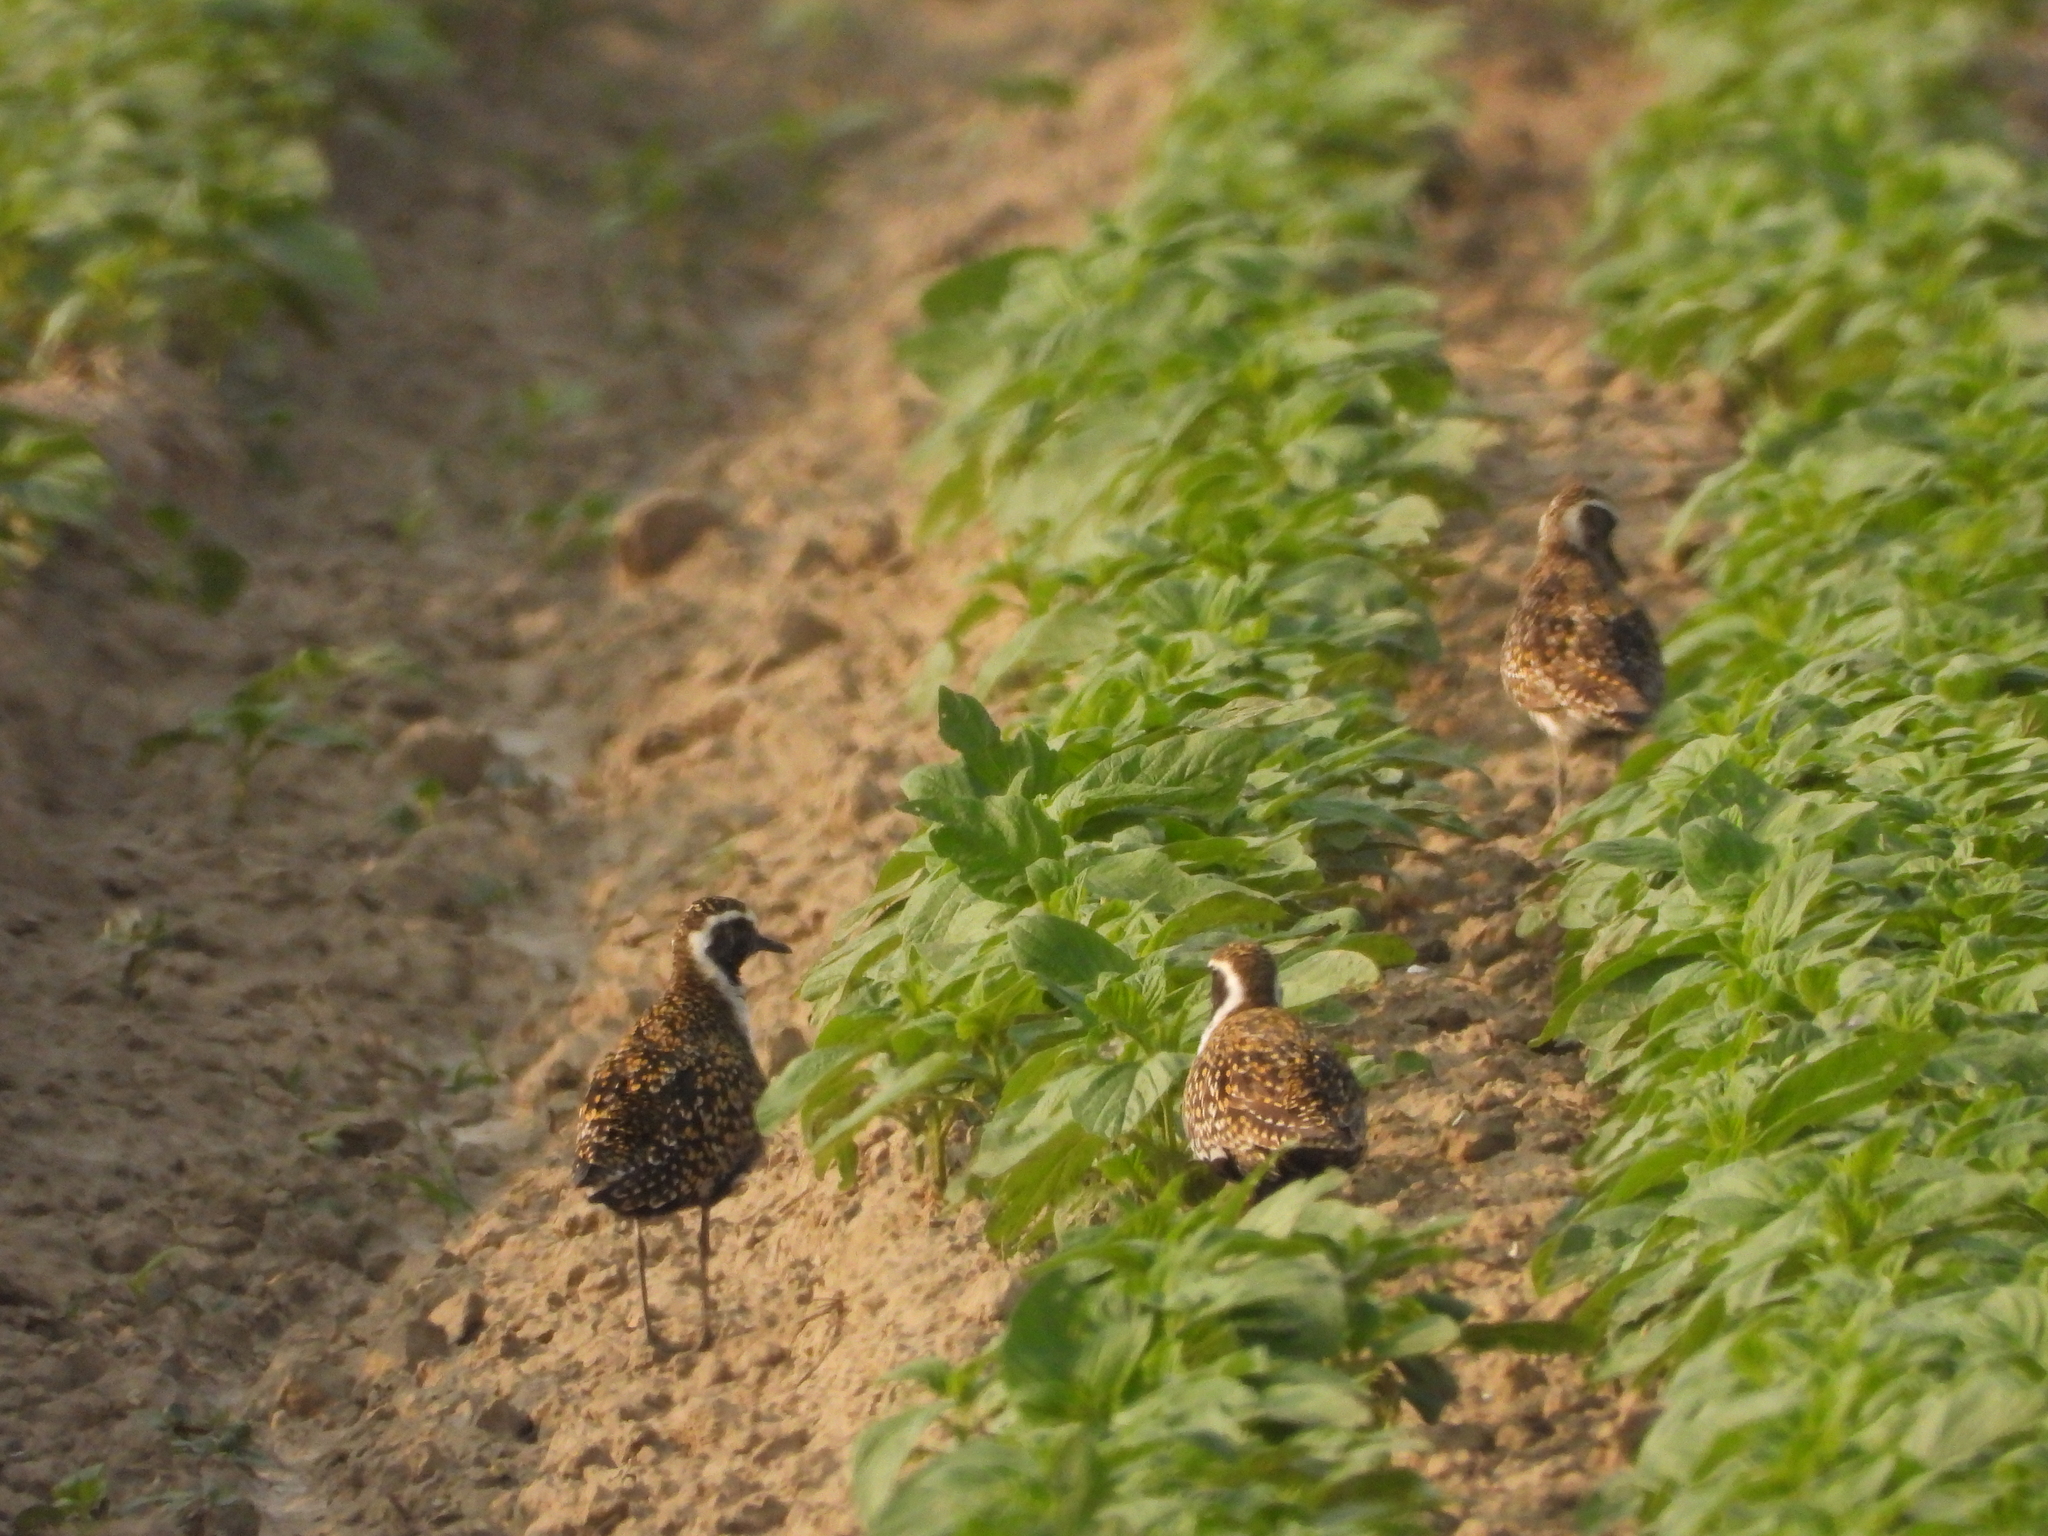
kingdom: Animalia
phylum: Chordata
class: Aves
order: Charadriiformes
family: Charadriidae
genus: Pluvialis
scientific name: Pluvialis fulva
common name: Pacific golden plover
